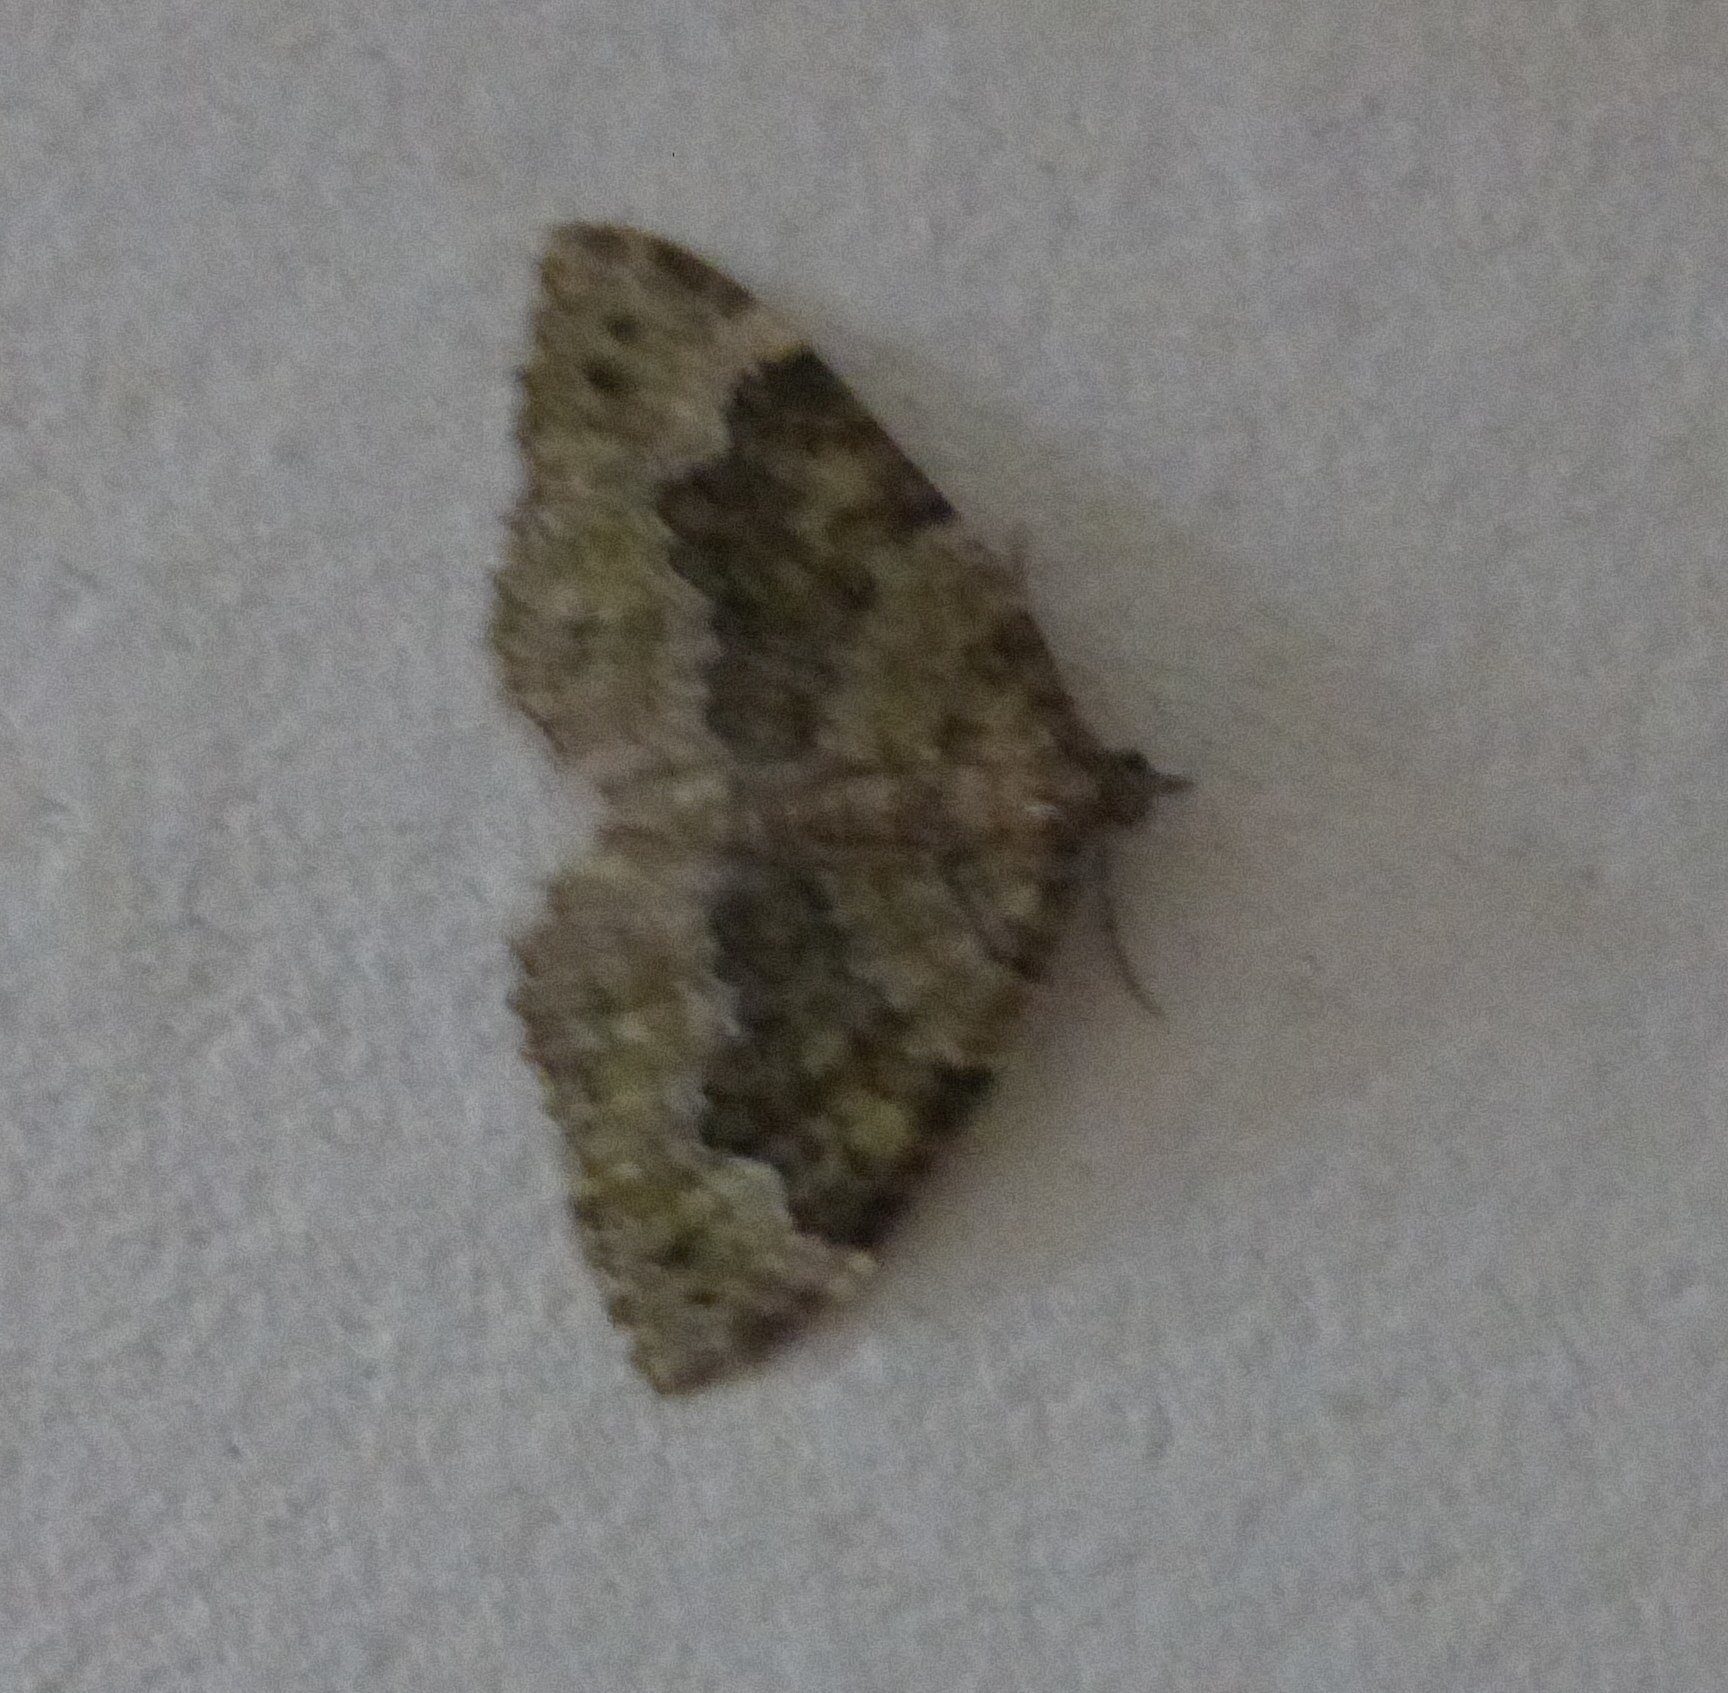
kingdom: Animalia
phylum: Arthropoda
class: Insecta
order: Lepidoptera
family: Geometridae
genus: Colostygia
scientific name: Colostygia olivata
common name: Beech-green carpet
